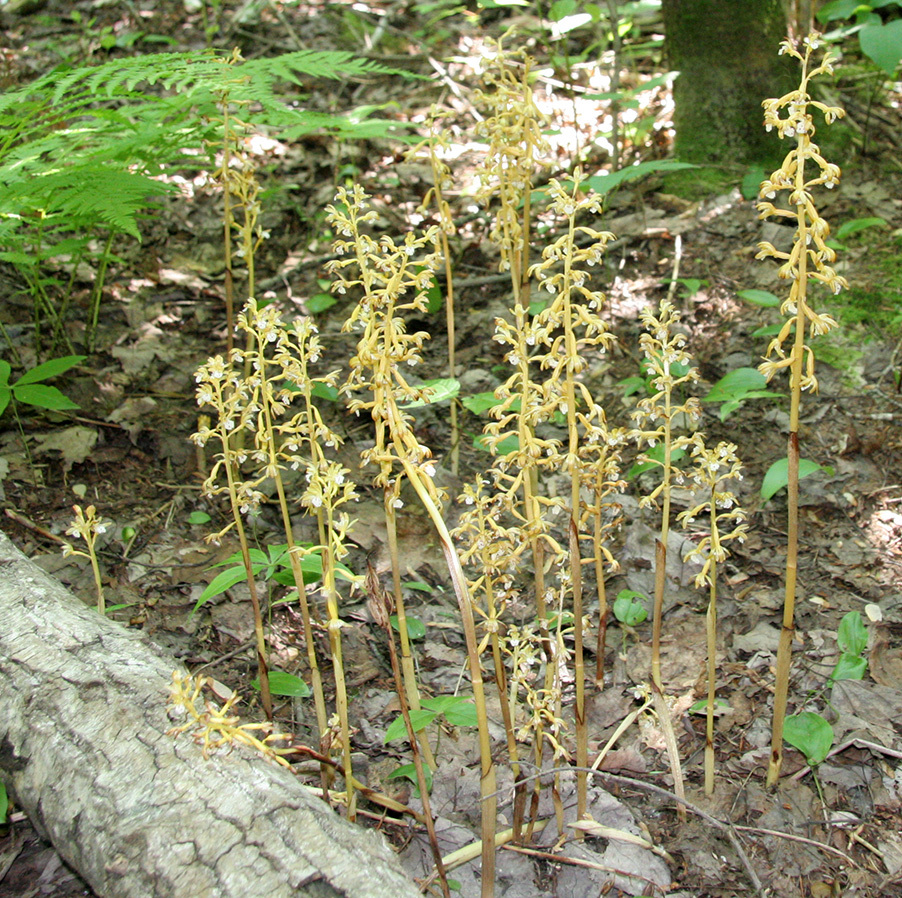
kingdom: Plantae
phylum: Tracheophyta
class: Liliopsida
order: Asparagales
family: Orchidaceae
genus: Corallorhiza
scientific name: Corallorhiza maculata
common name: Spotted coralroot
